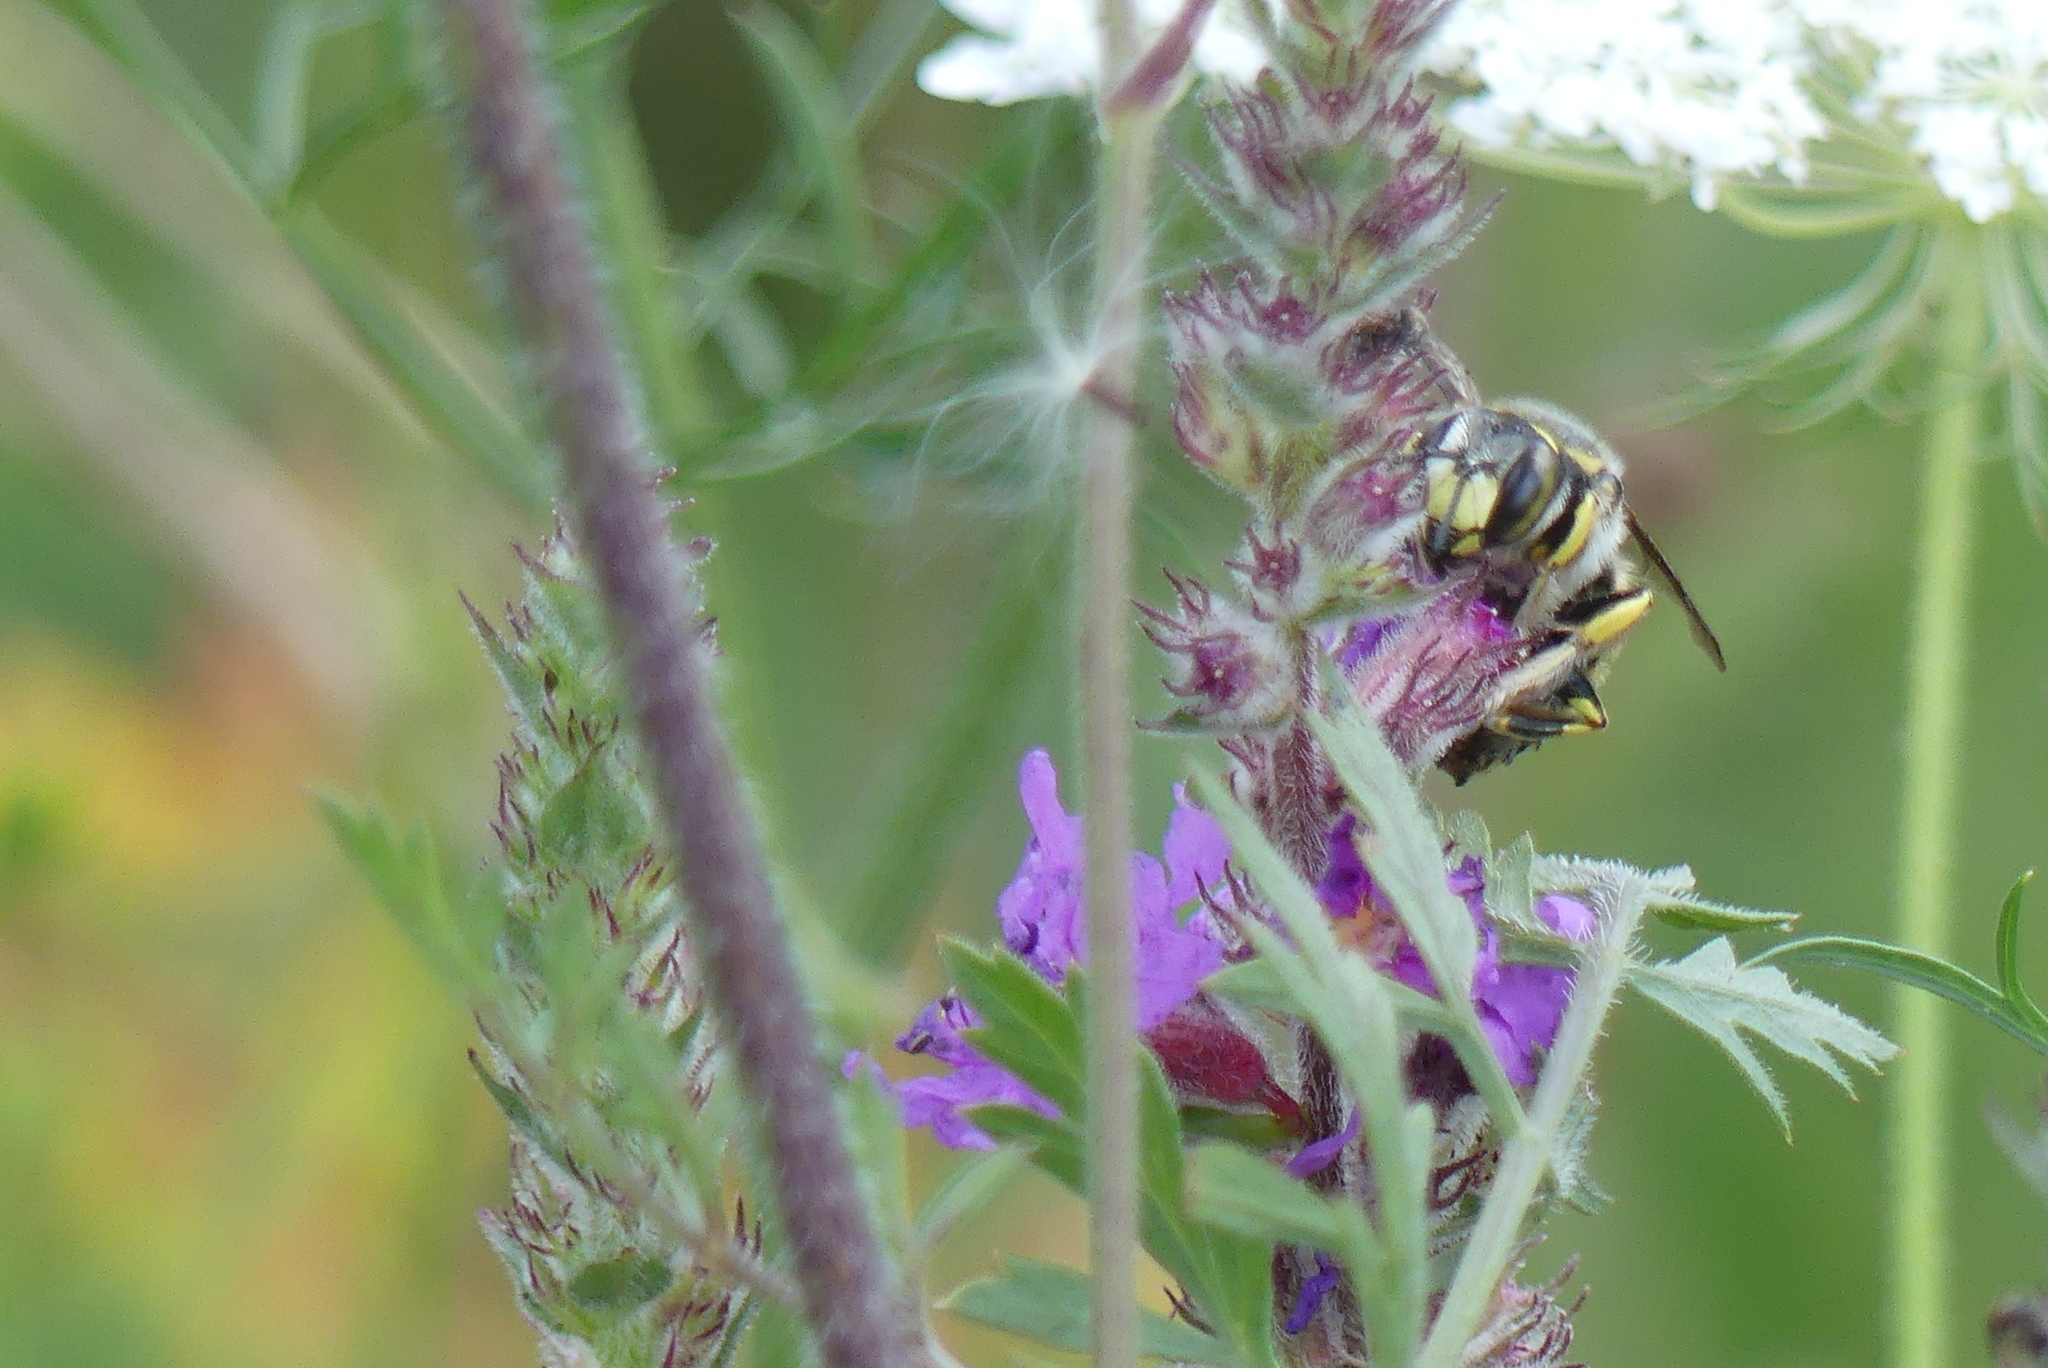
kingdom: Animalia
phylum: Arthropoda
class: Insecta
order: Hymenoptera
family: Megachilidae
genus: Anthidium
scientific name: Anthidium florentinum
